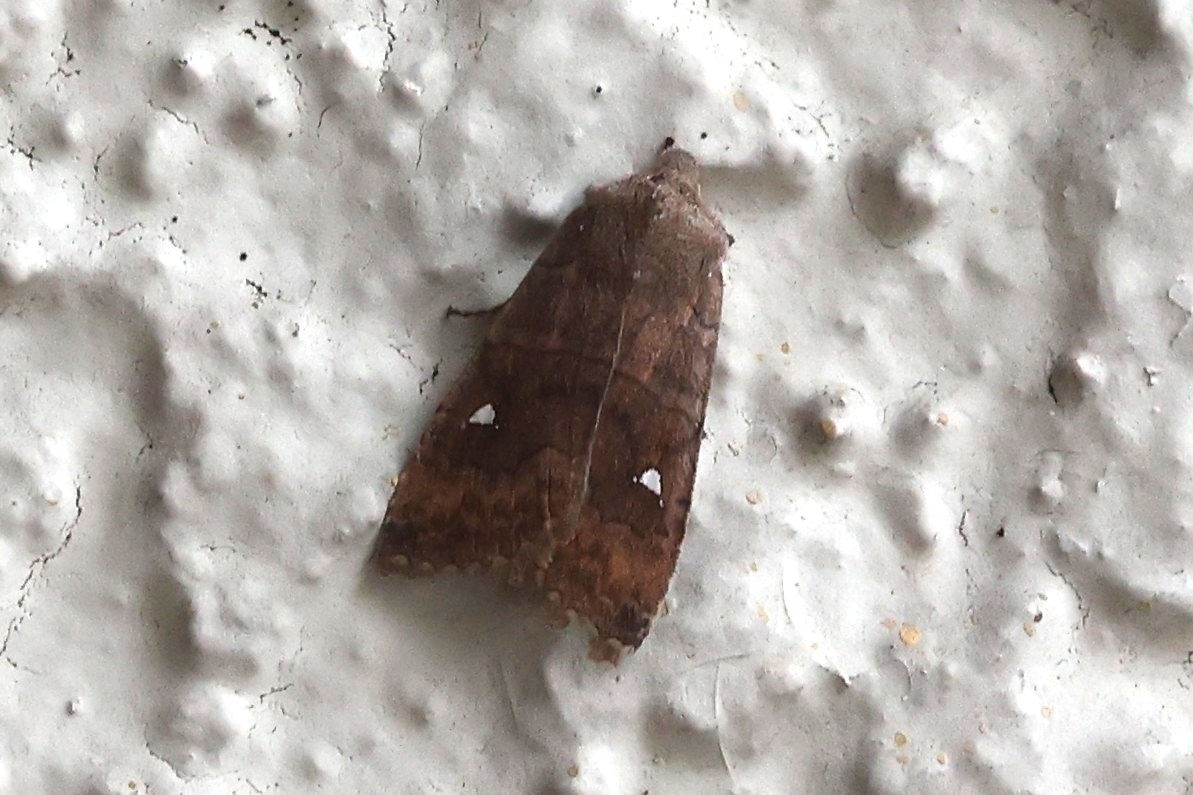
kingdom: Animalia
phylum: Arthropoda
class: Insecta
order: Lepidoptera
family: Noctuidae
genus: Eupsilia
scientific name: Eupsilia transversa
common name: Satellite
